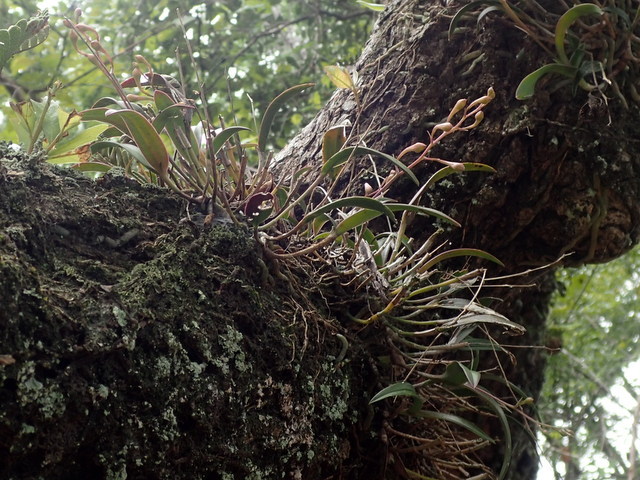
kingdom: Plantae
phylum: Tracheophyta
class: Liliopsida
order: Asparagales
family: Orchidaceae
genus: Epidendrum
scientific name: Epidendrum conopseum
